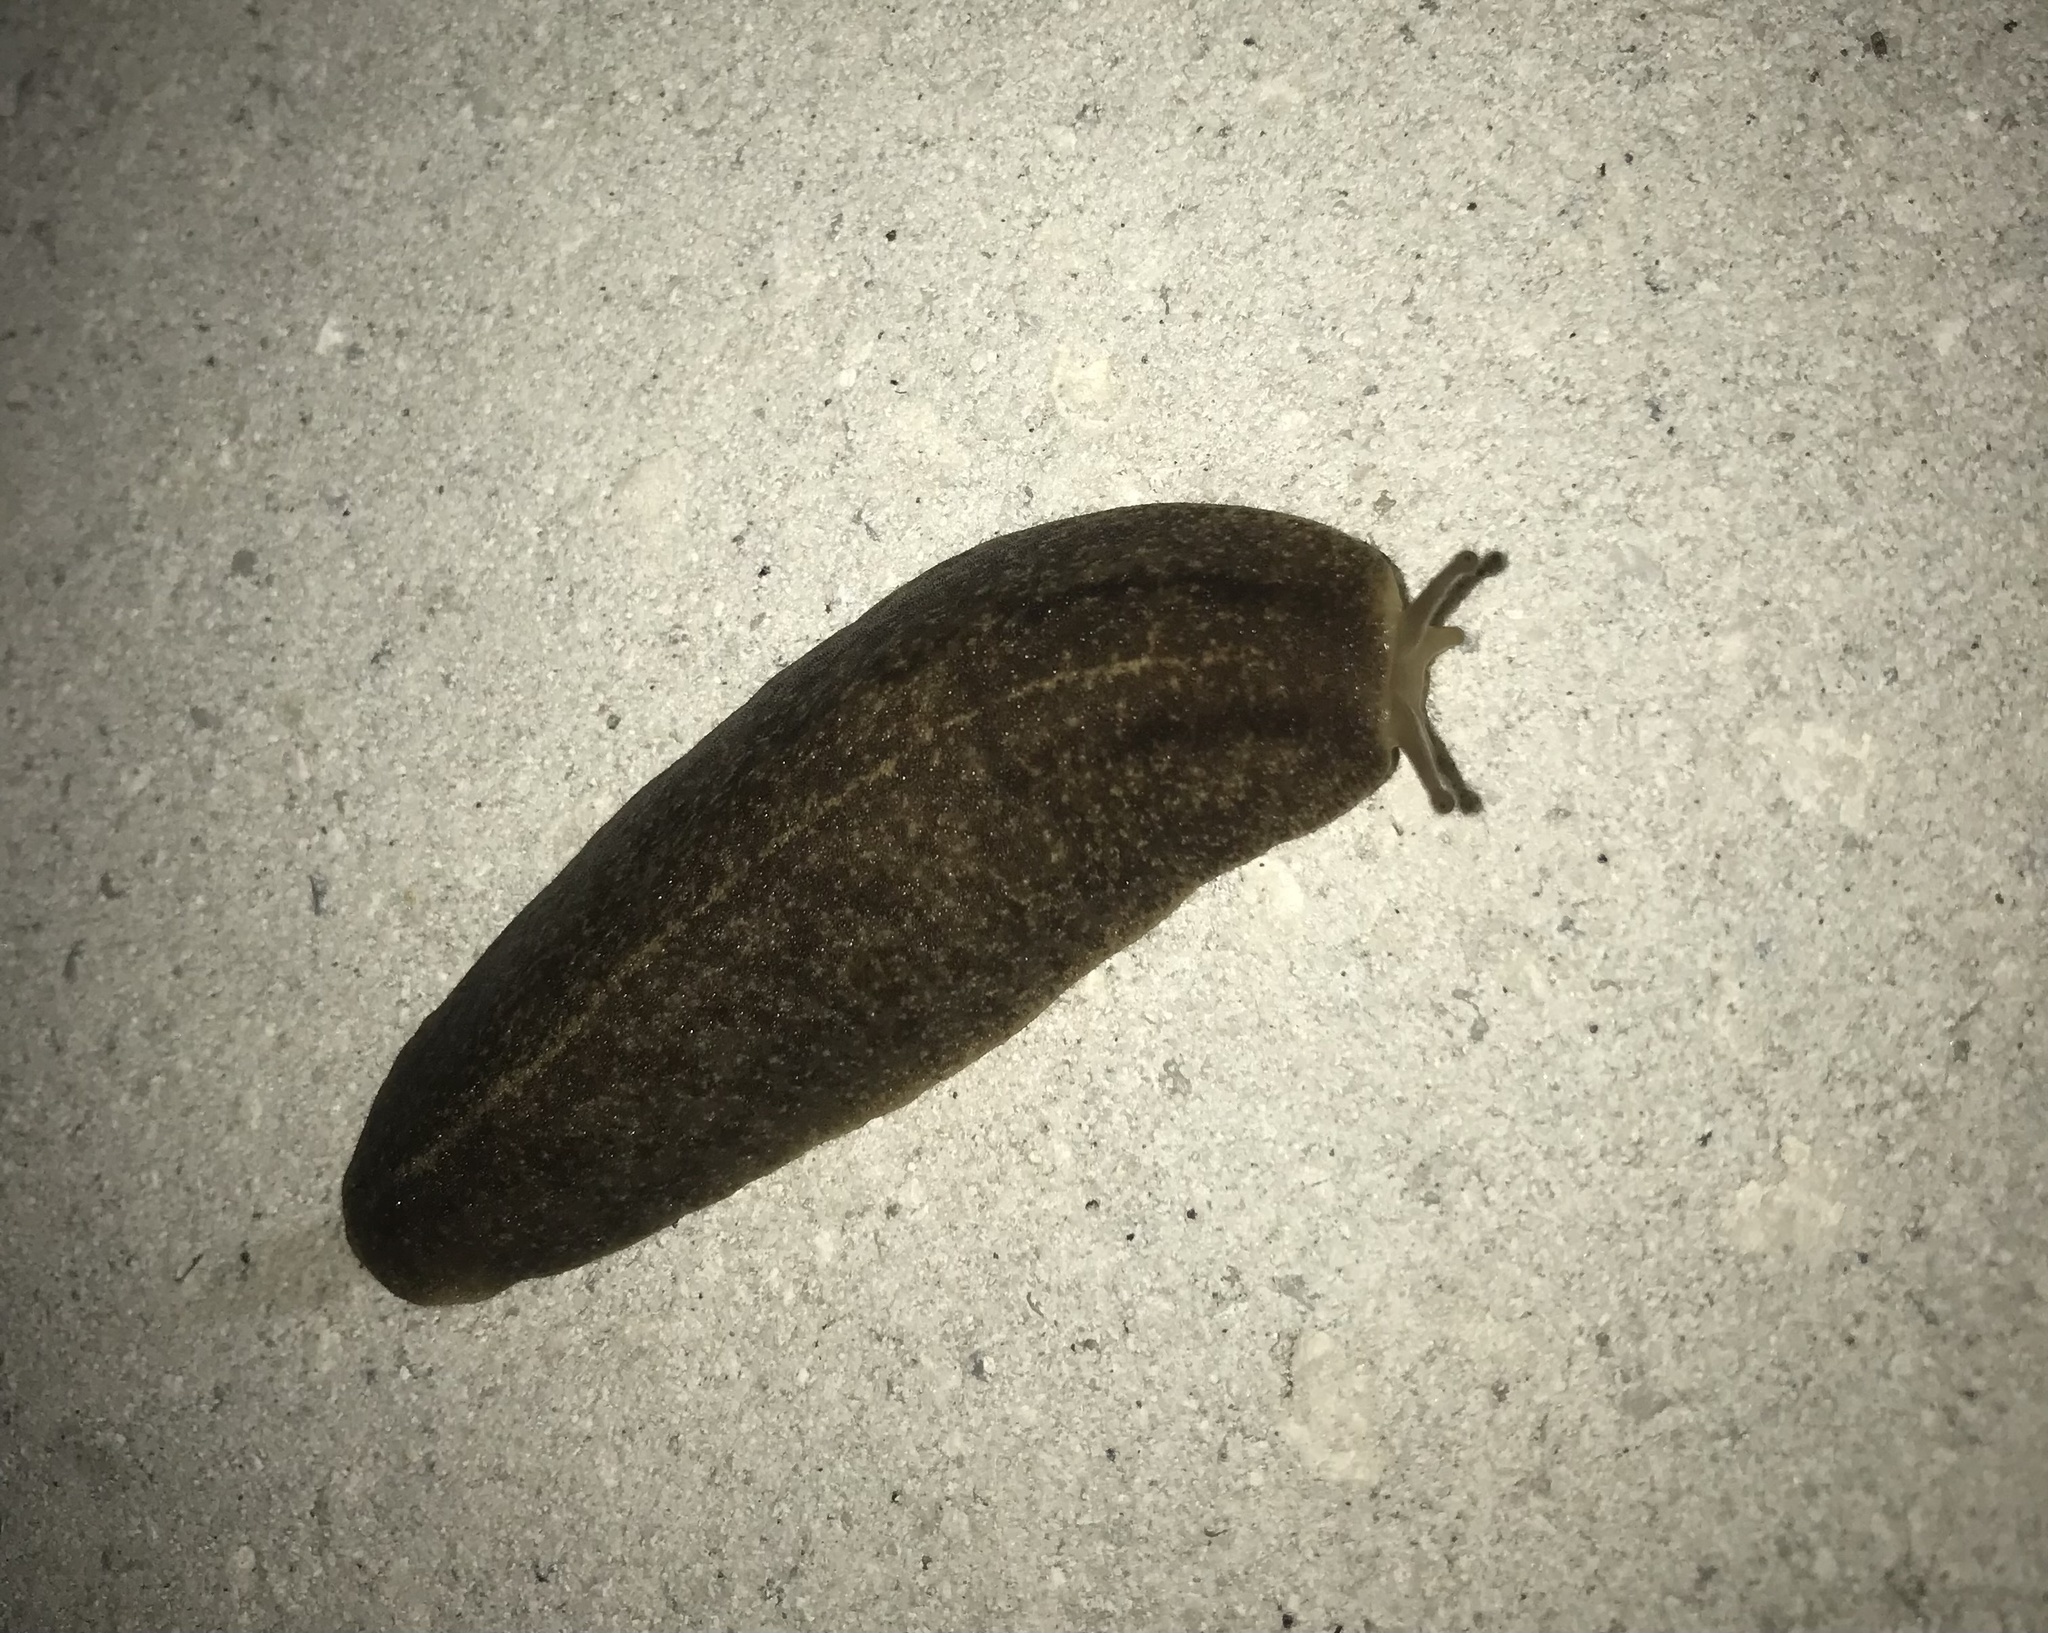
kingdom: Animalia
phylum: Mollusca
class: Gastropoda
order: Systellommatophora
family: Veronicellidae
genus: Leidyula
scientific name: Leidyula floridana
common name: Florida leatherleaf
